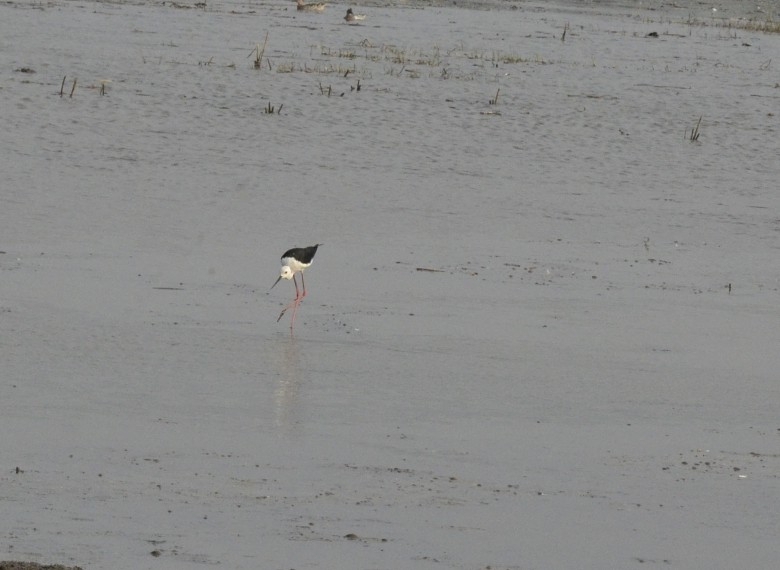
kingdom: Animalia
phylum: Chordata
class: Aves
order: Charadriiformes
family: Recurvirostridae
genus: Himantopus
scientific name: Himantopus himantopus
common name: Black-winged stilt
